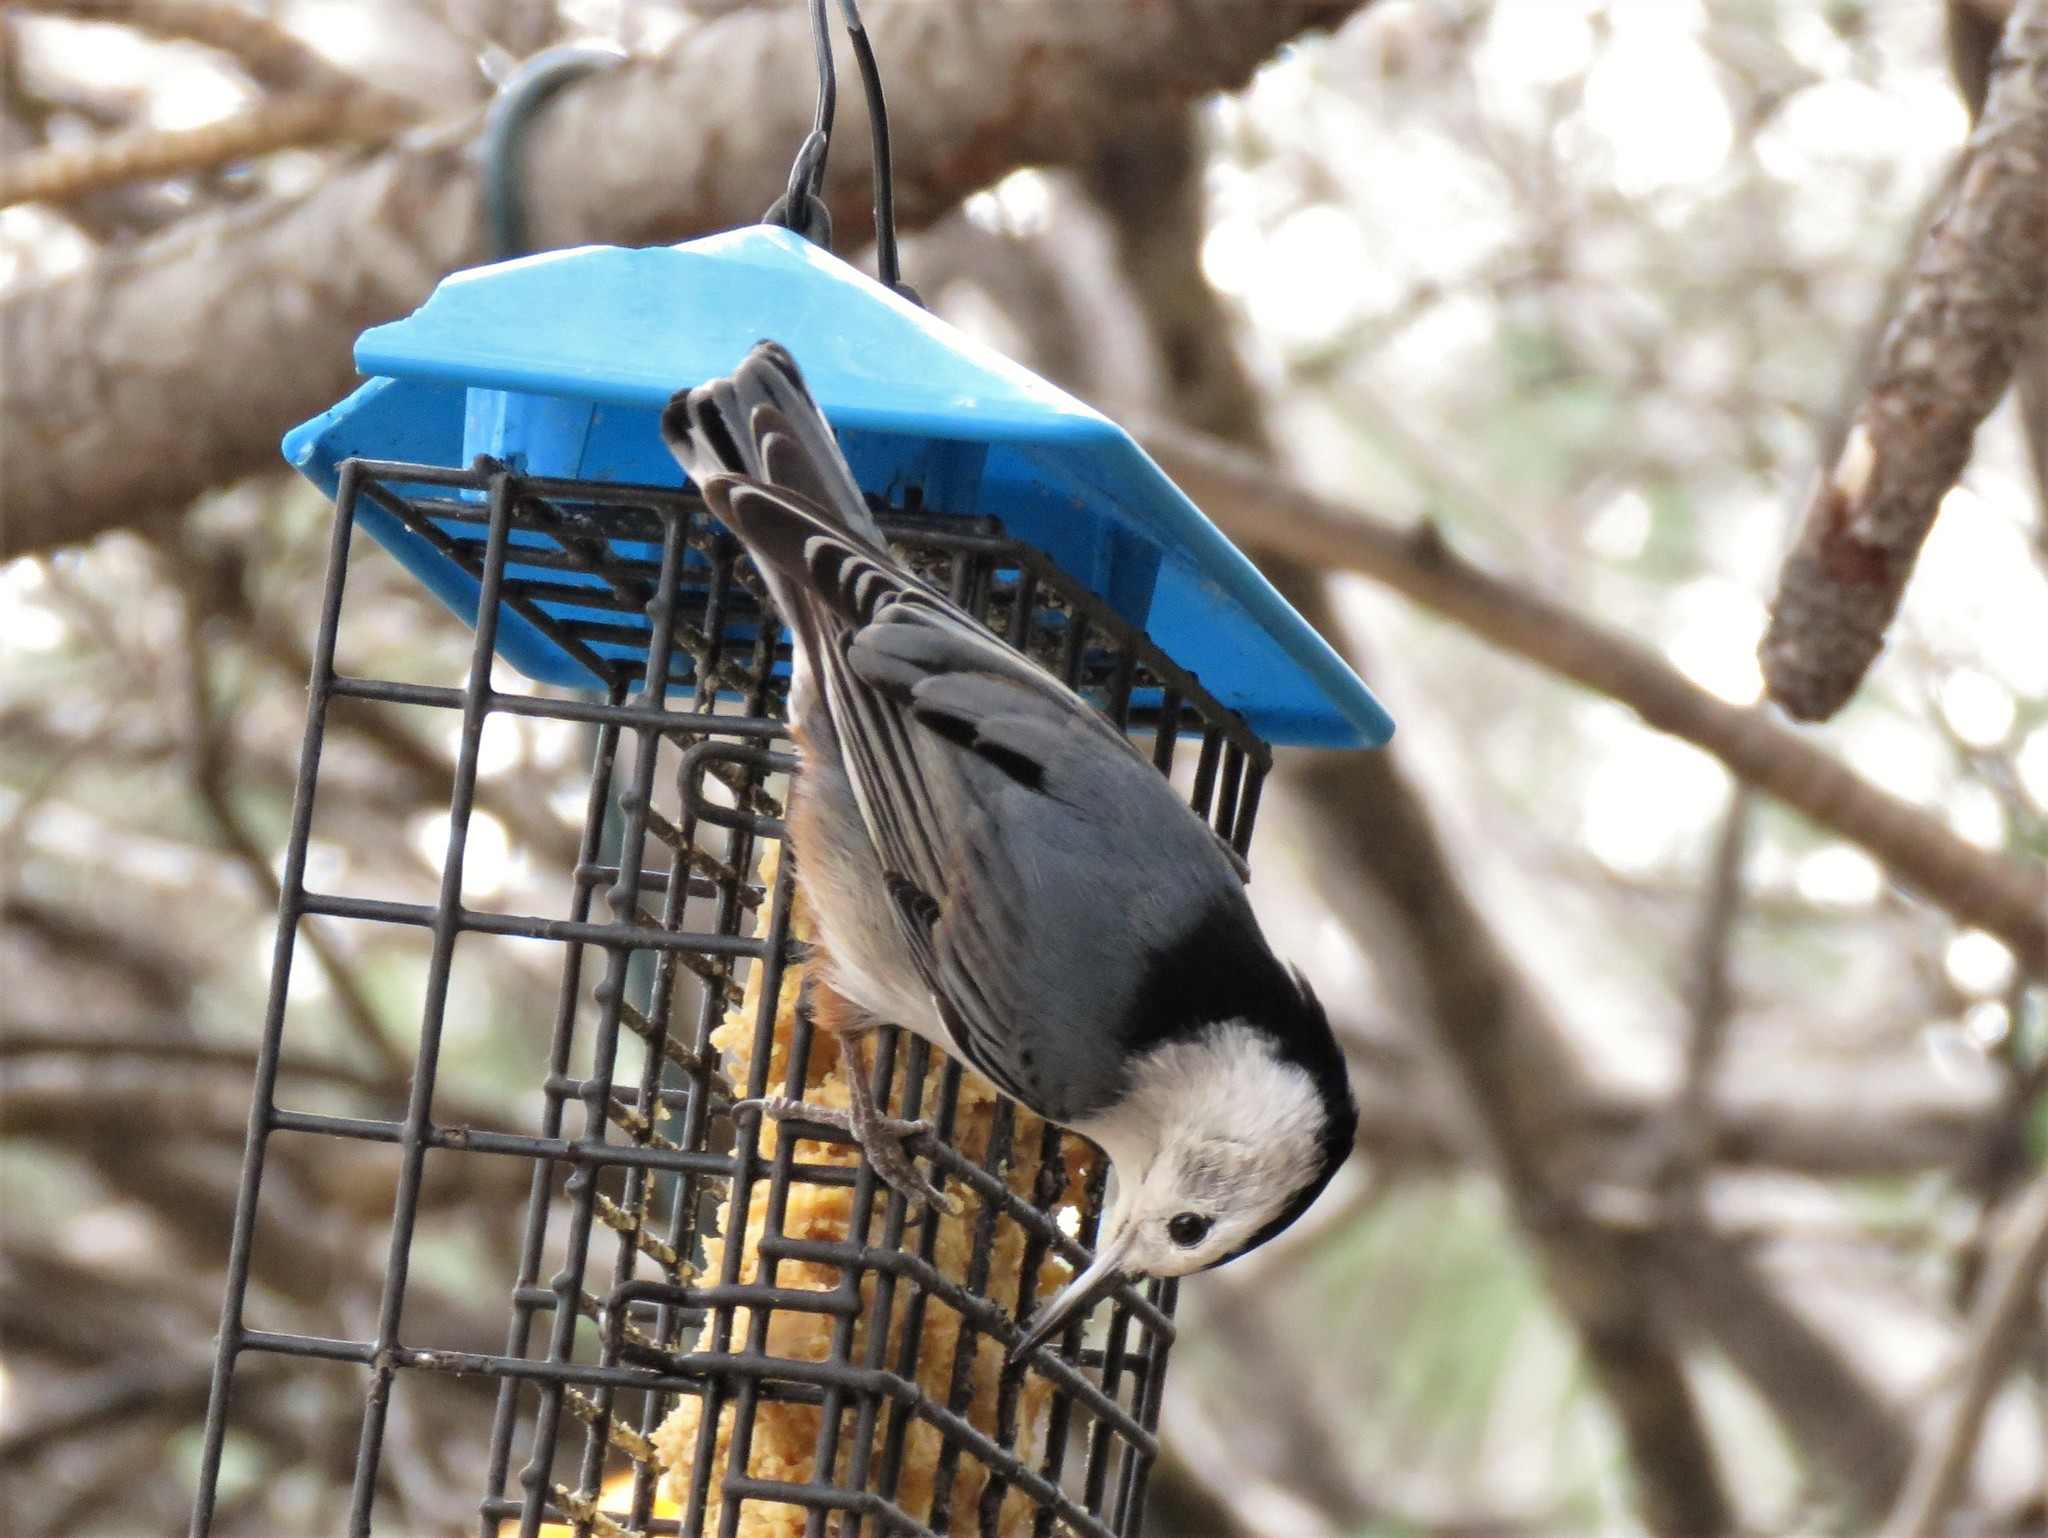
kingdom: Animalia
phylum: Chordata
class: Aves
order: Passeriformes
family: Sittidae
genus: Sitta
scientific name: Sitta carolinensis
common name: White-breasted nuthatch
